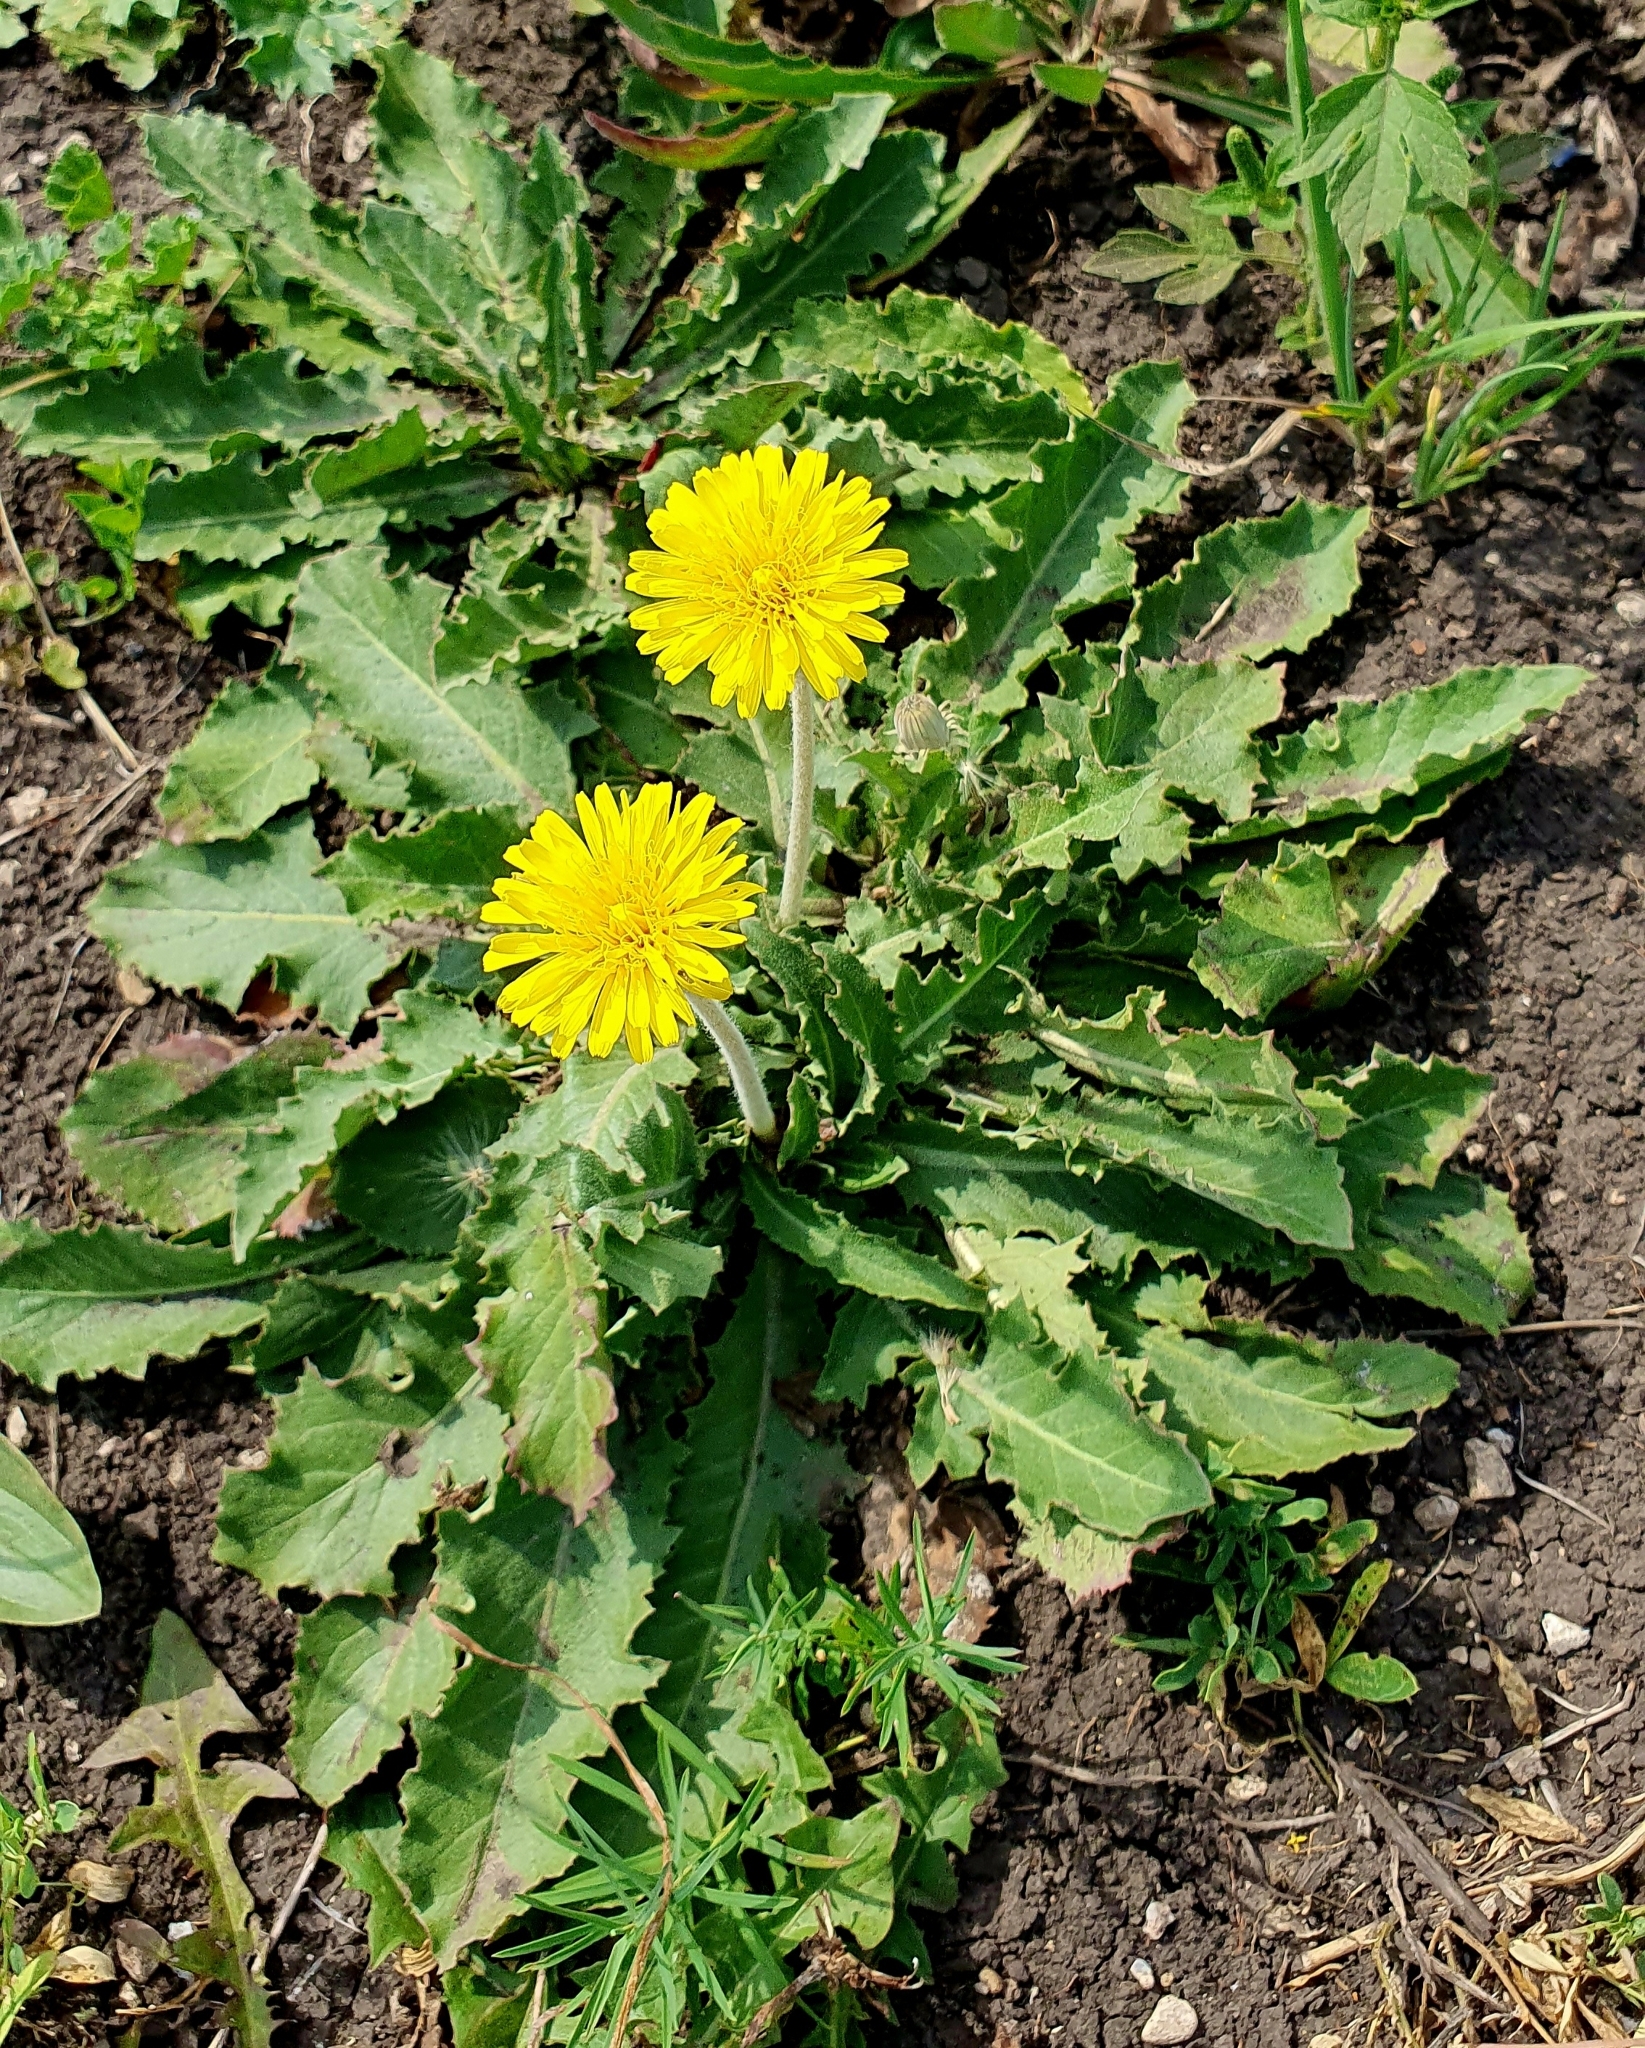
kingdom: Plantae
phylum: Tracheophyta
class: Magnoliopsida
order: Asterales
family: Asteraceae
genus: Taraxacum
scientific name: Taraxacum serotinum
